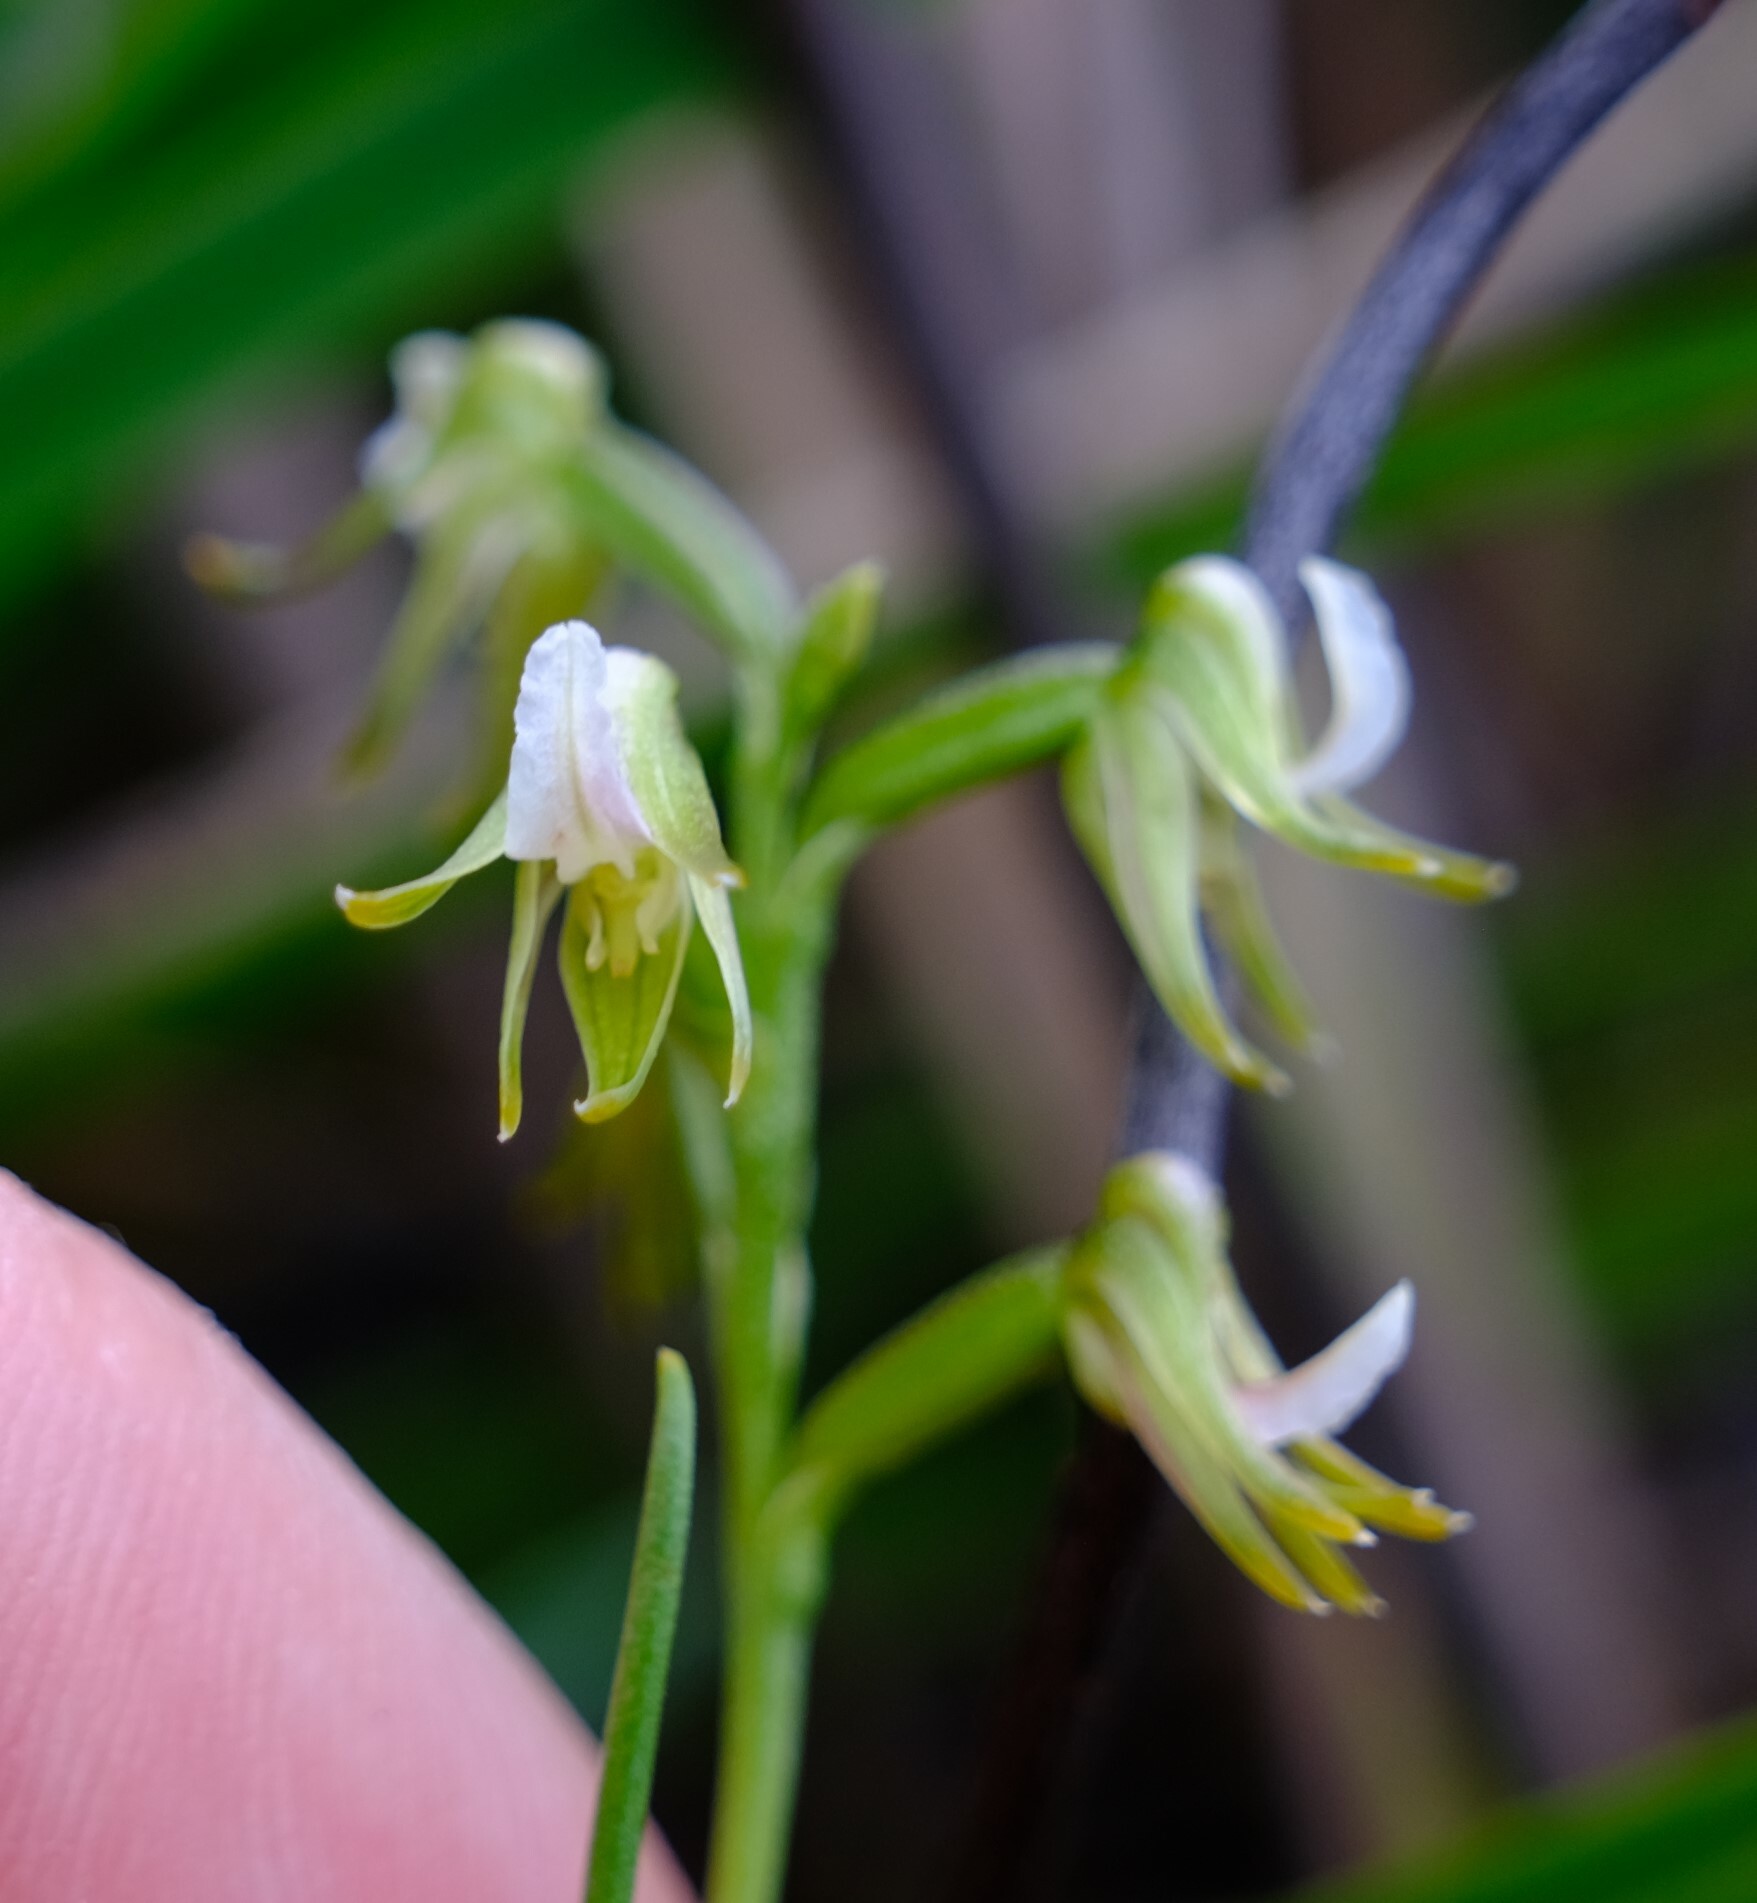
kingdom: Plantae
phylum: Tracheophyta
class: Liliopsida
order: Asparagales
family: Orchidaceae
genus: Prasophyllum
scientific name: Prasophyllum parvifolium
